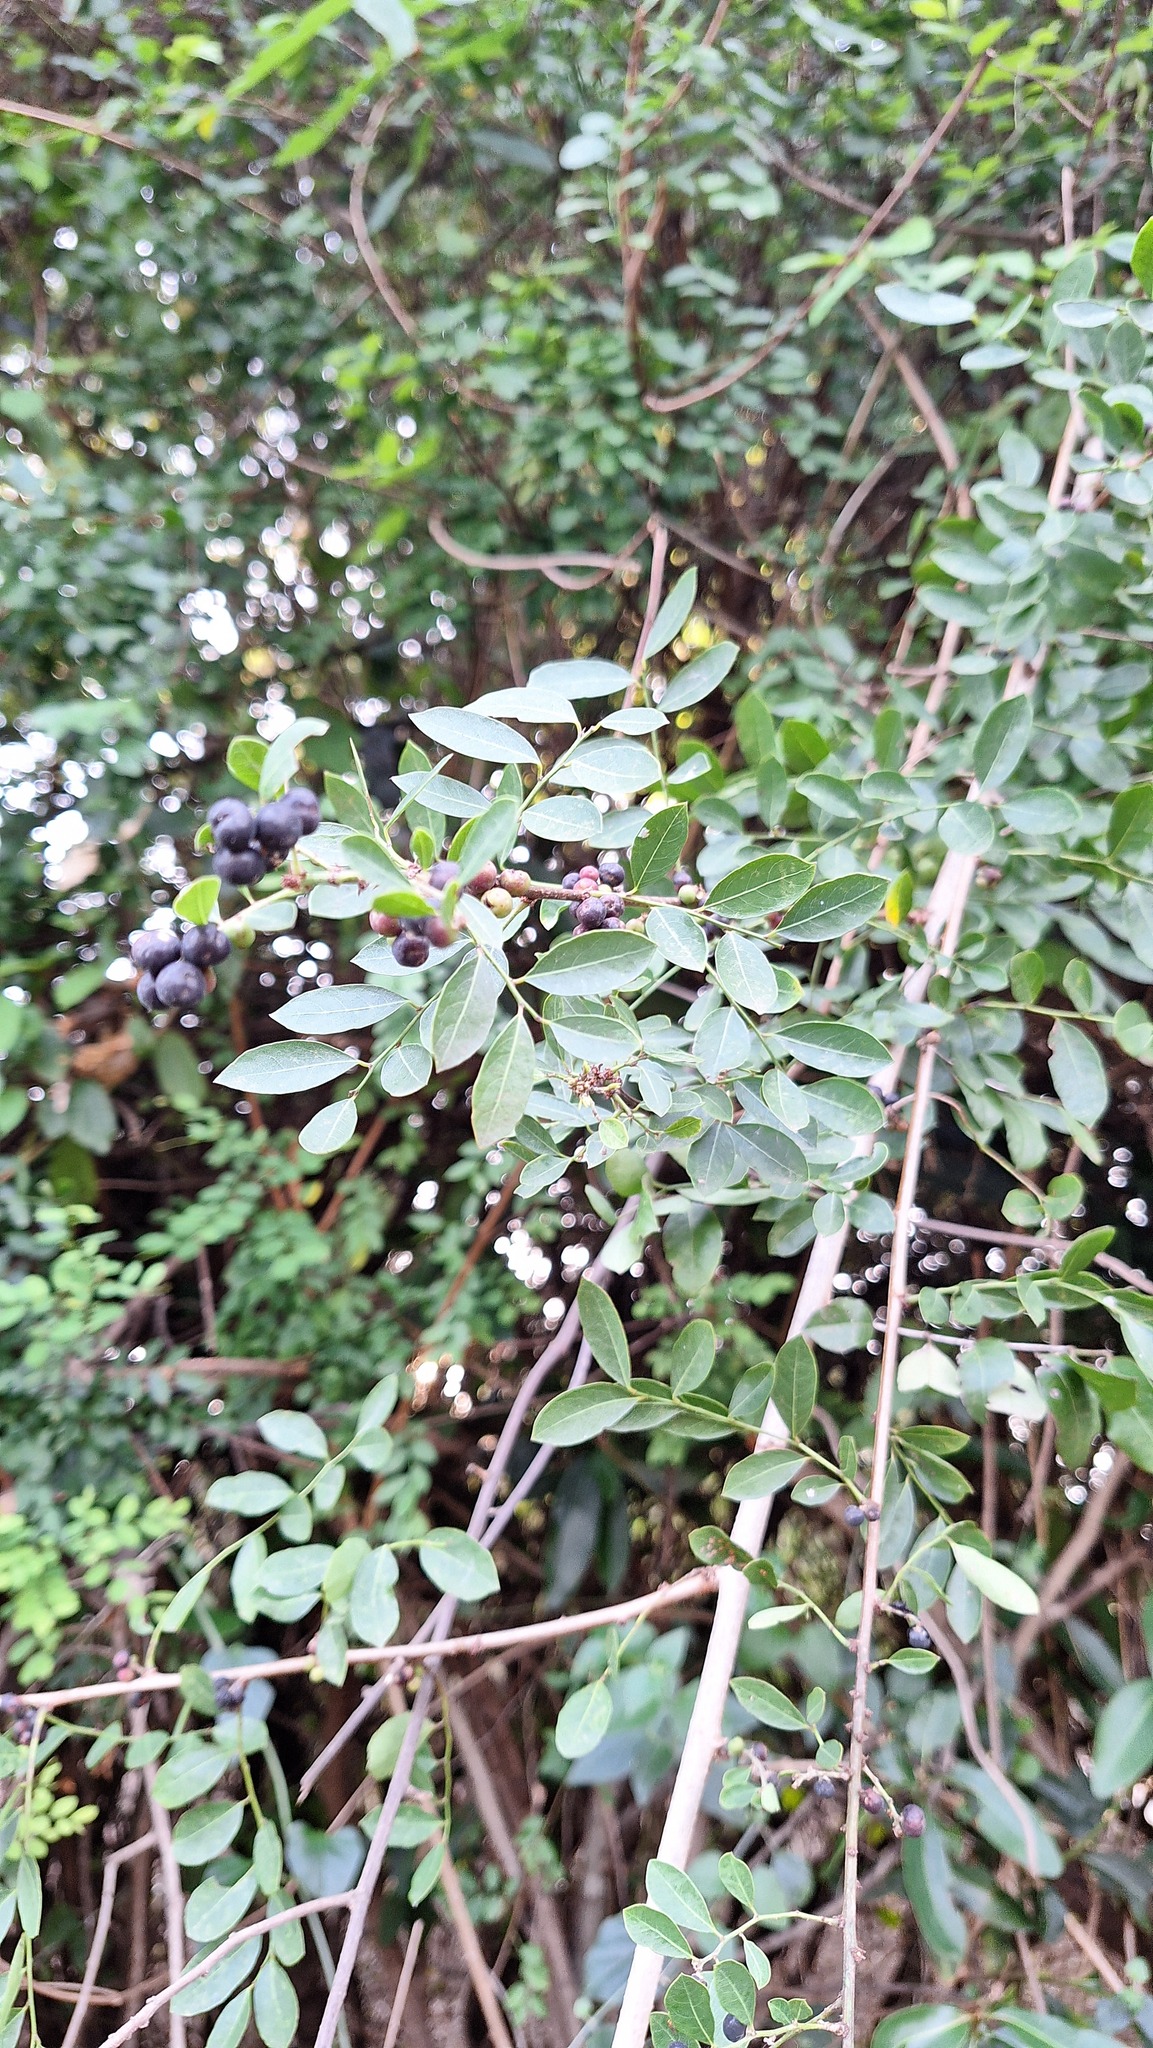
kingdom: Plantae
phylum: Tracheophyta
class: Magnoliopsida
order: Malpighiales
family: Phyllanthaceae
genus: Phyllanthus
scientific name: Phyllanthus reticulatus
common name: Potato bush
